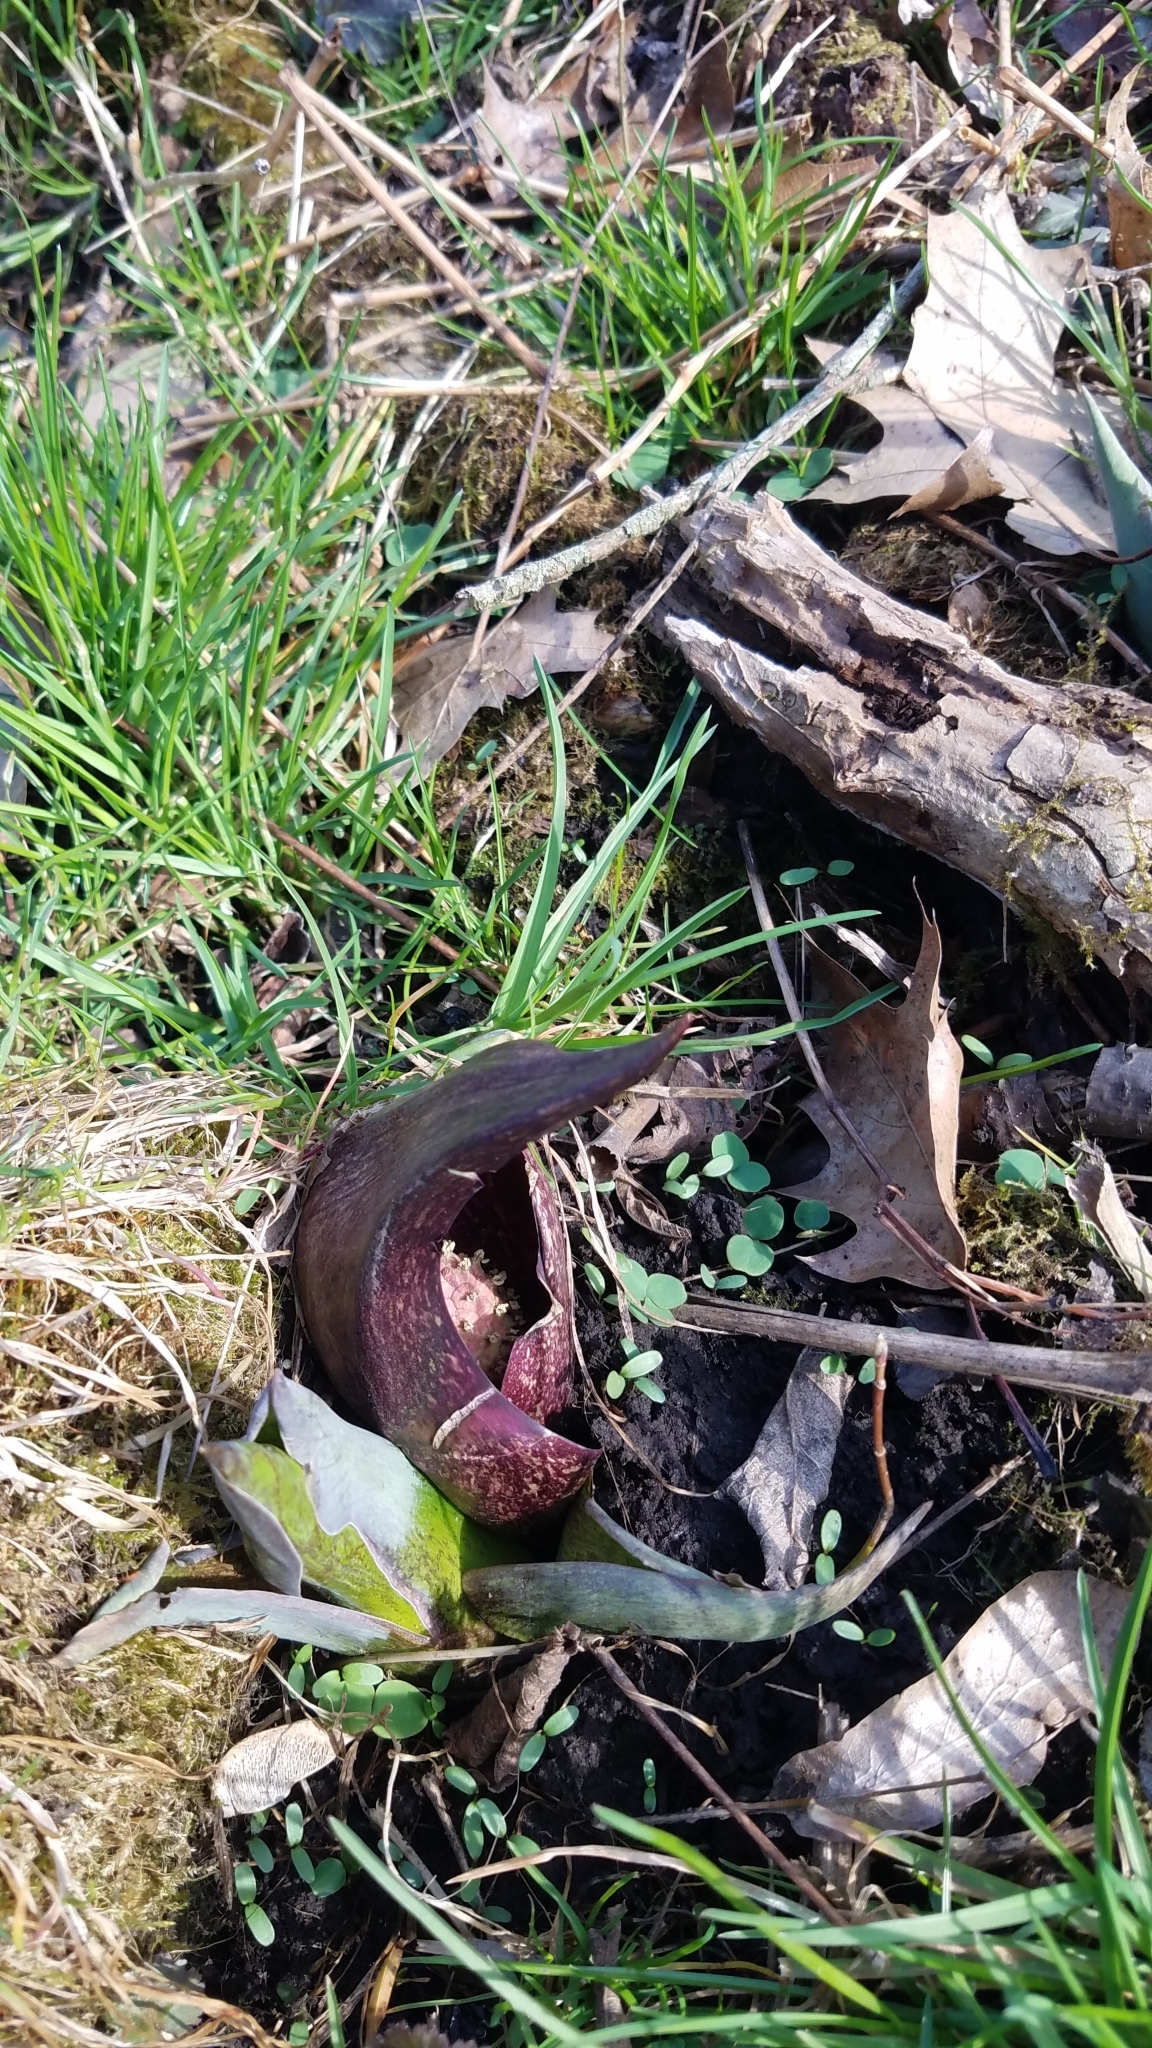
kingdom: Plantae
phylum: Tracheophyta
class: Liliopsida
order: Alismatales
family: Araceae
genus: Symplocarpus
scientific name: Symplocarpus foetidus
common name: Eastern skunk cabbage
